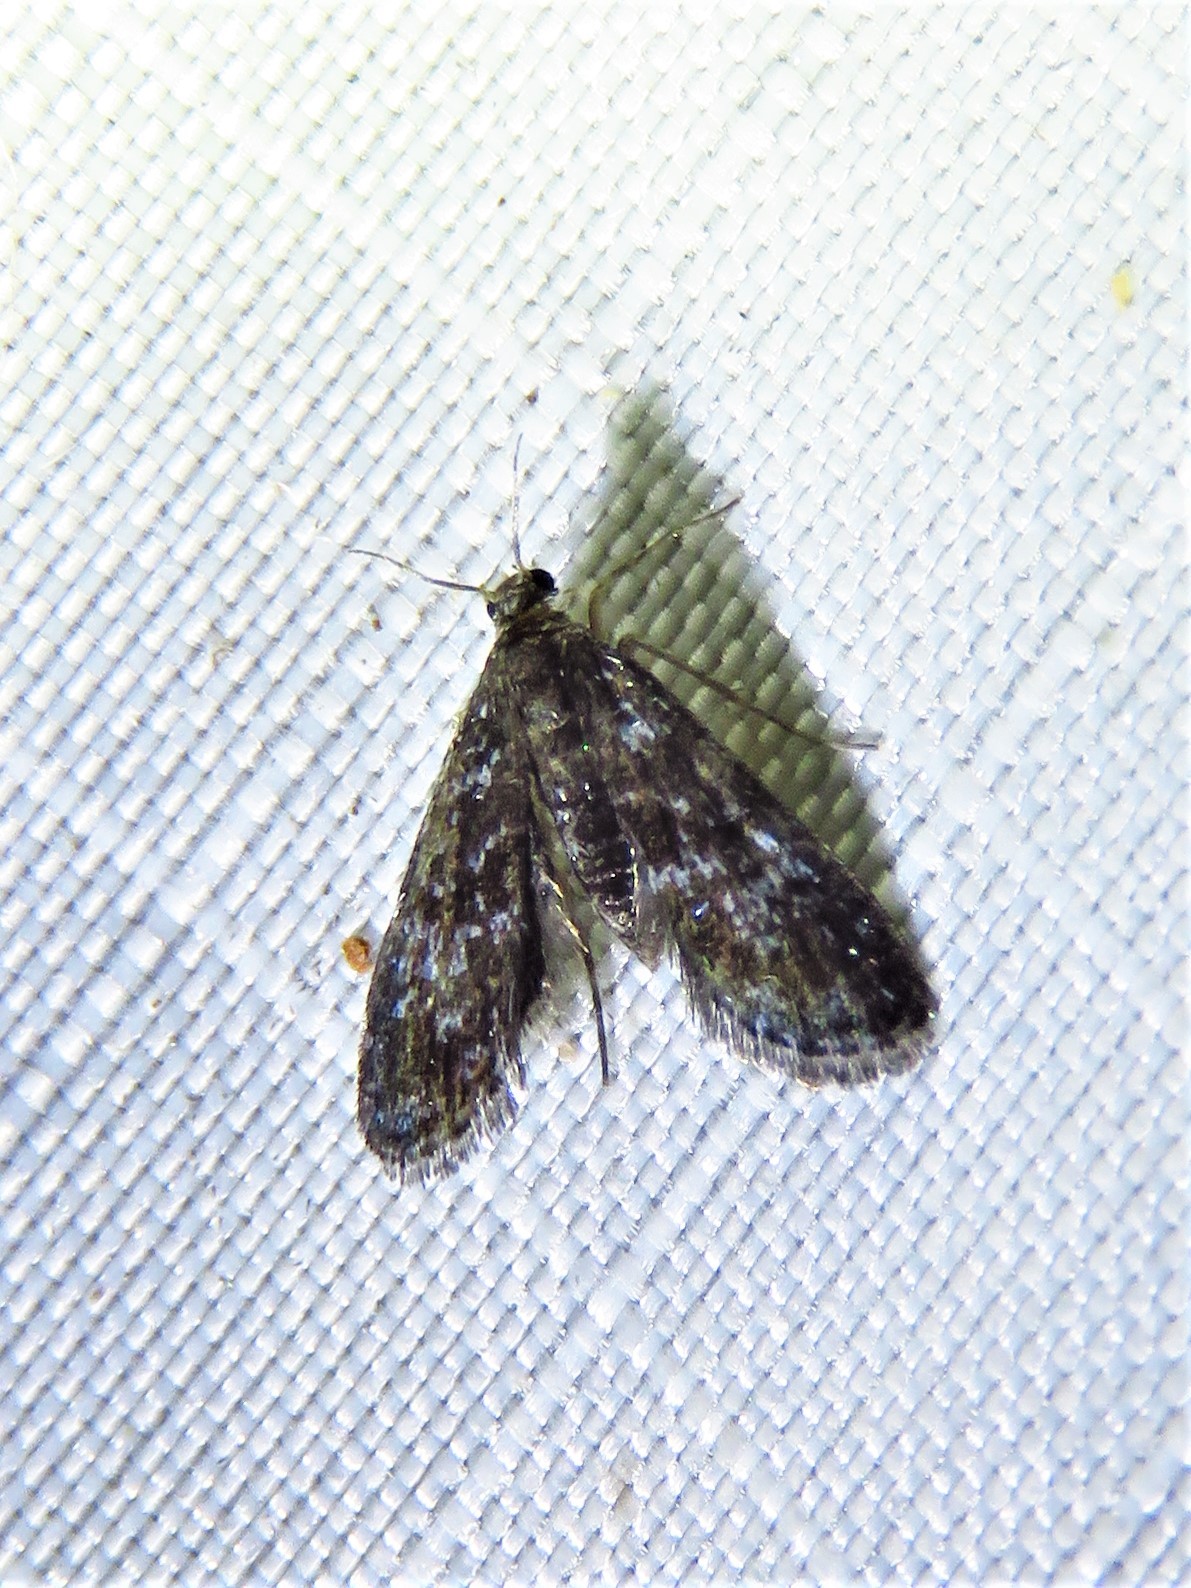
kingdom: Animalia
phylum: Arthropoda
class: Insecta
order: Lepidoptera
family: Crambidae
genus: Elophila
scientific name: Elophila tinealis
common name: Black duckweed moth
